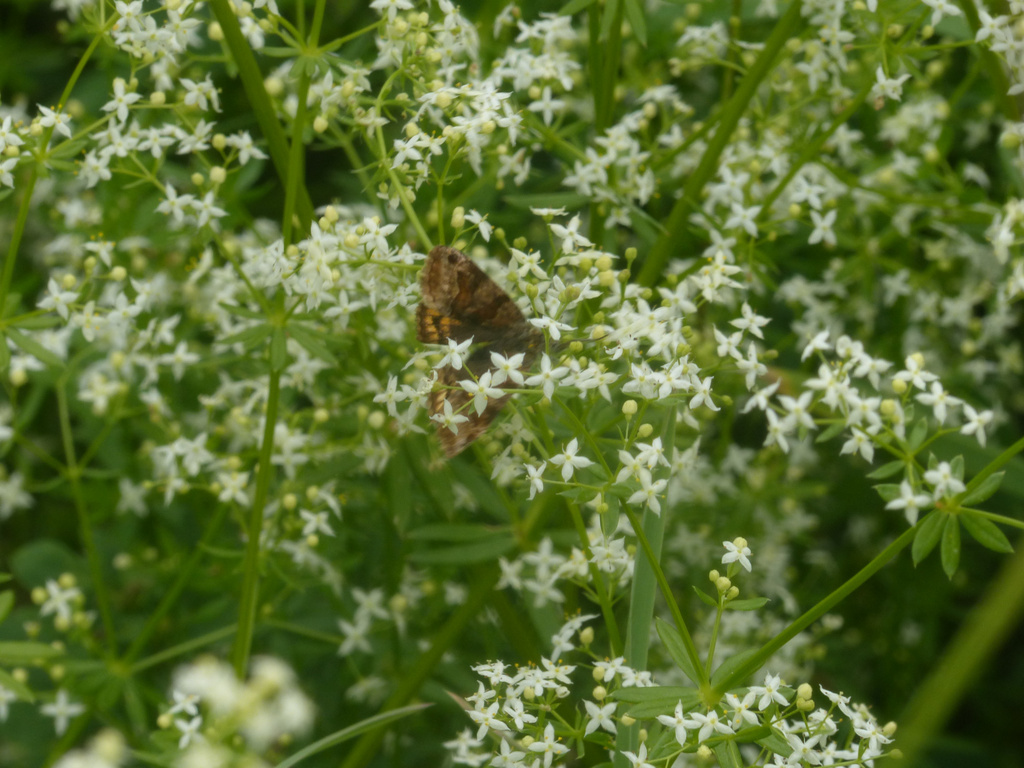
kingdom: Animalia
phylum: Arthropoda
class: Insecta
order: Lepidoptera
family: Erebidae
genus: Euclidia
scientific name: Euclidia glyphica
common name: Burnet companion
